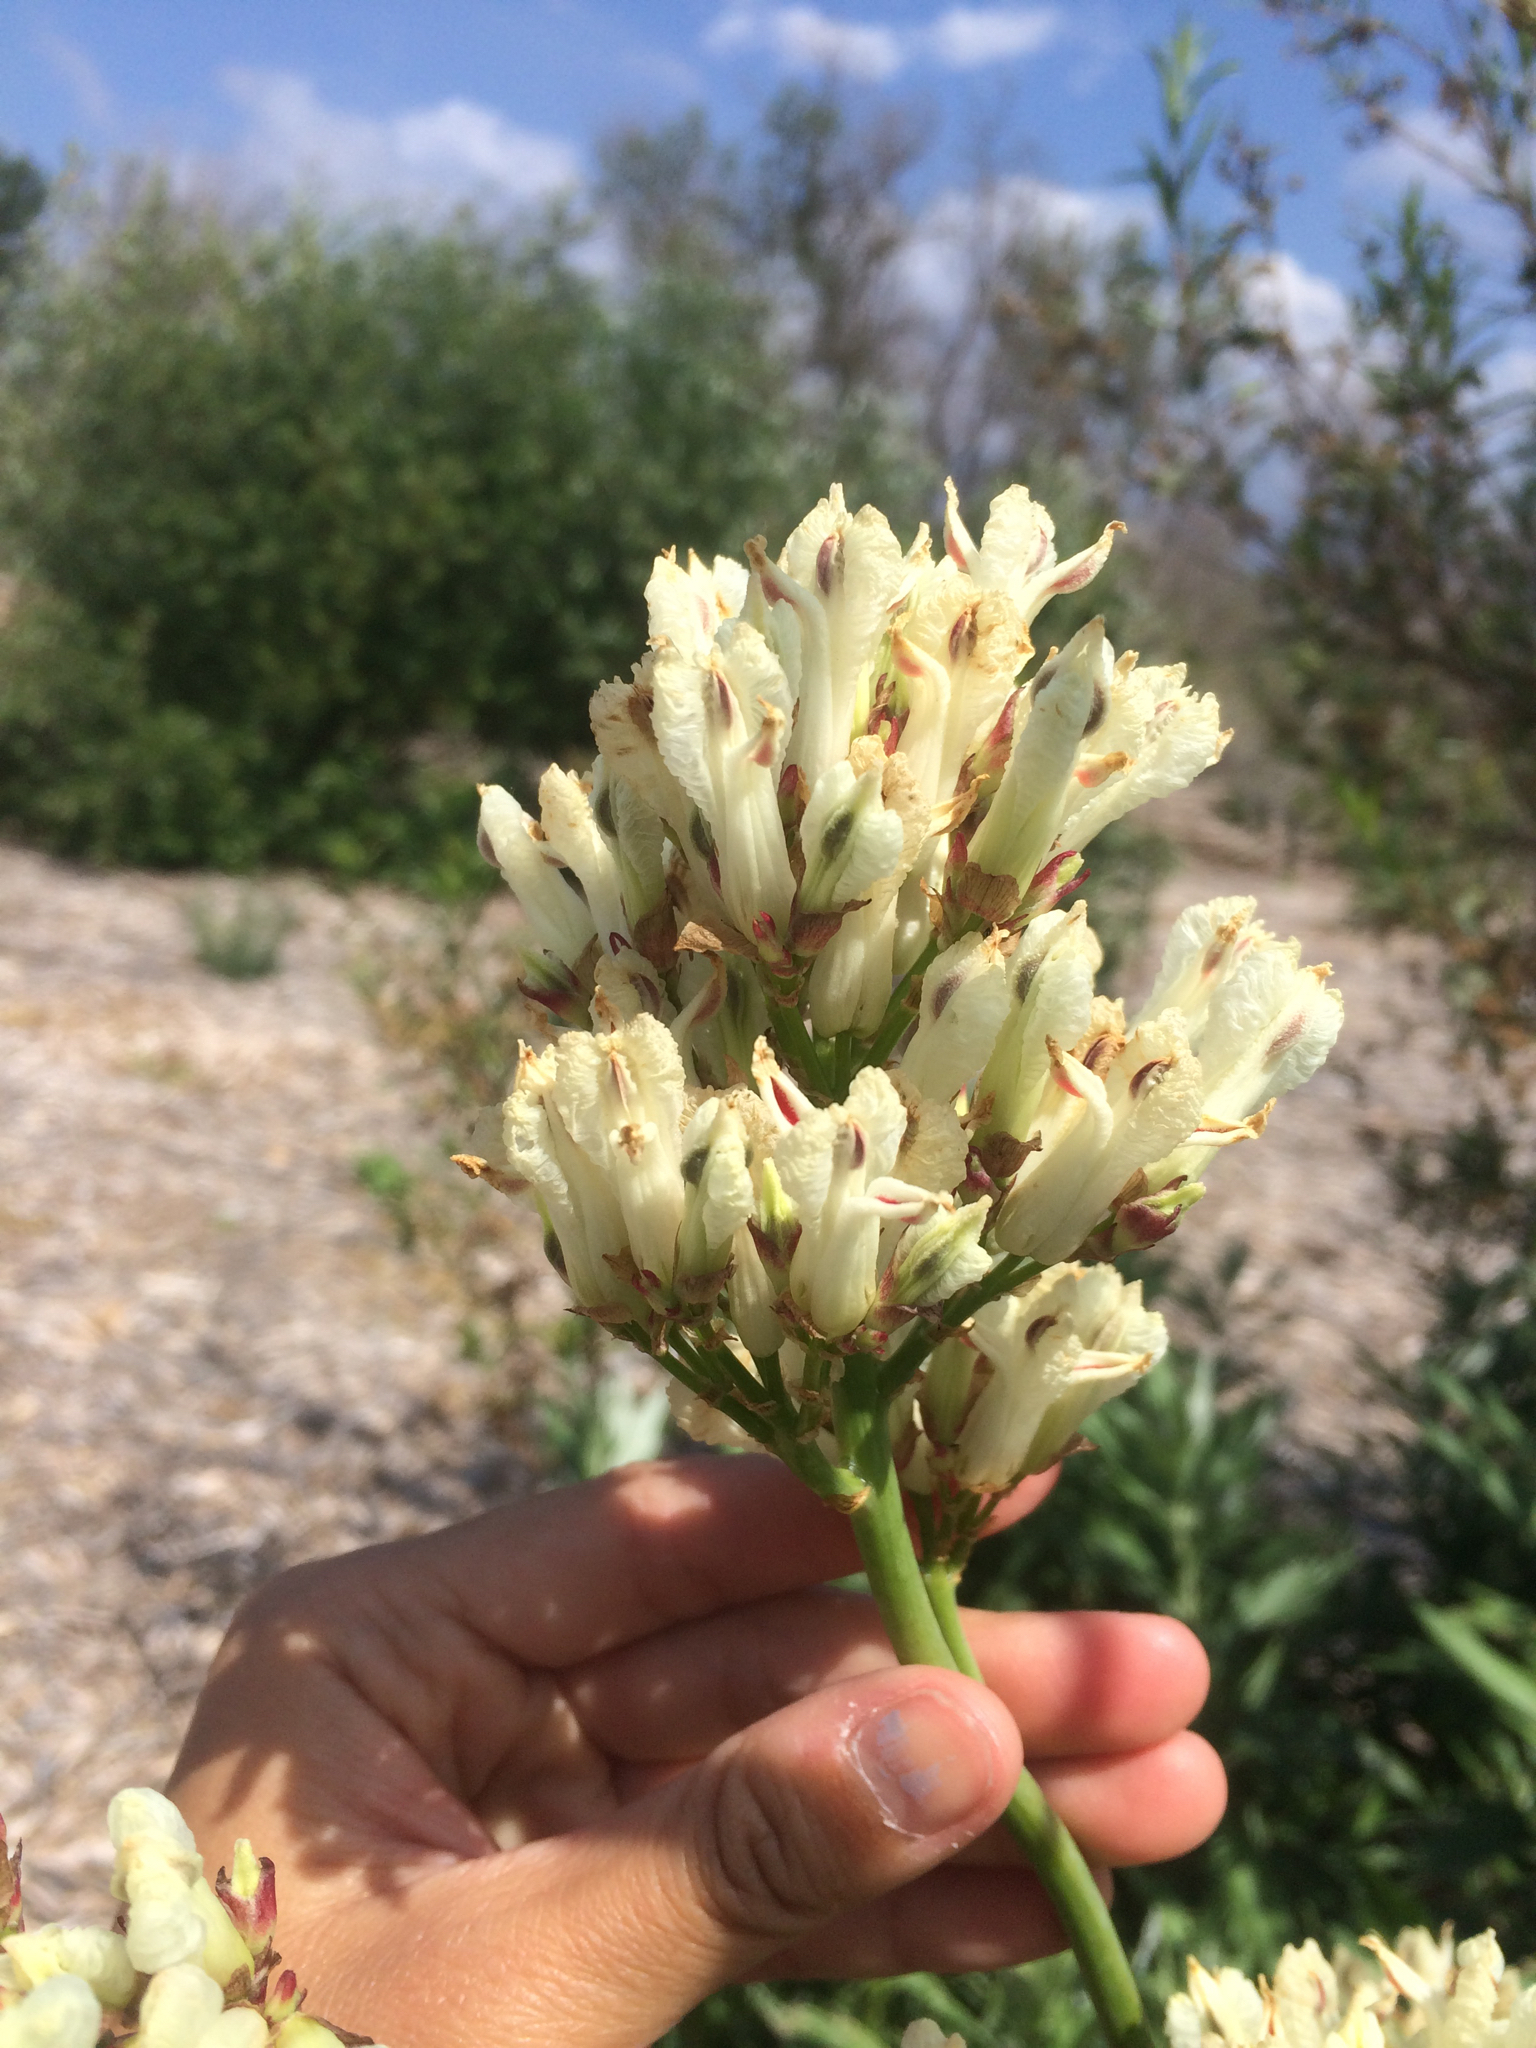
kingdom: Plantae
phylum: Tracheophyta
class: Magnoliopsida
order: Ranunculales
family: Papaveraceae
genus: Ehrendorferia
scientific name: Ehrendorferia ochroleuca
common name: White eardrops
